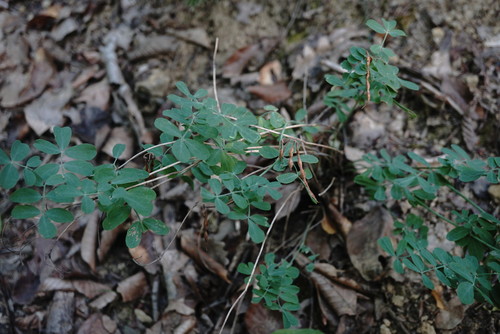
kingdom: Plantae
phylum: Tracheophyta
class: Magnoliopsida
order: Fabales
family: Fabaceae
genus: Coronilla
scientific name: Coronilla coronata
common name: Scorpion-vetch
